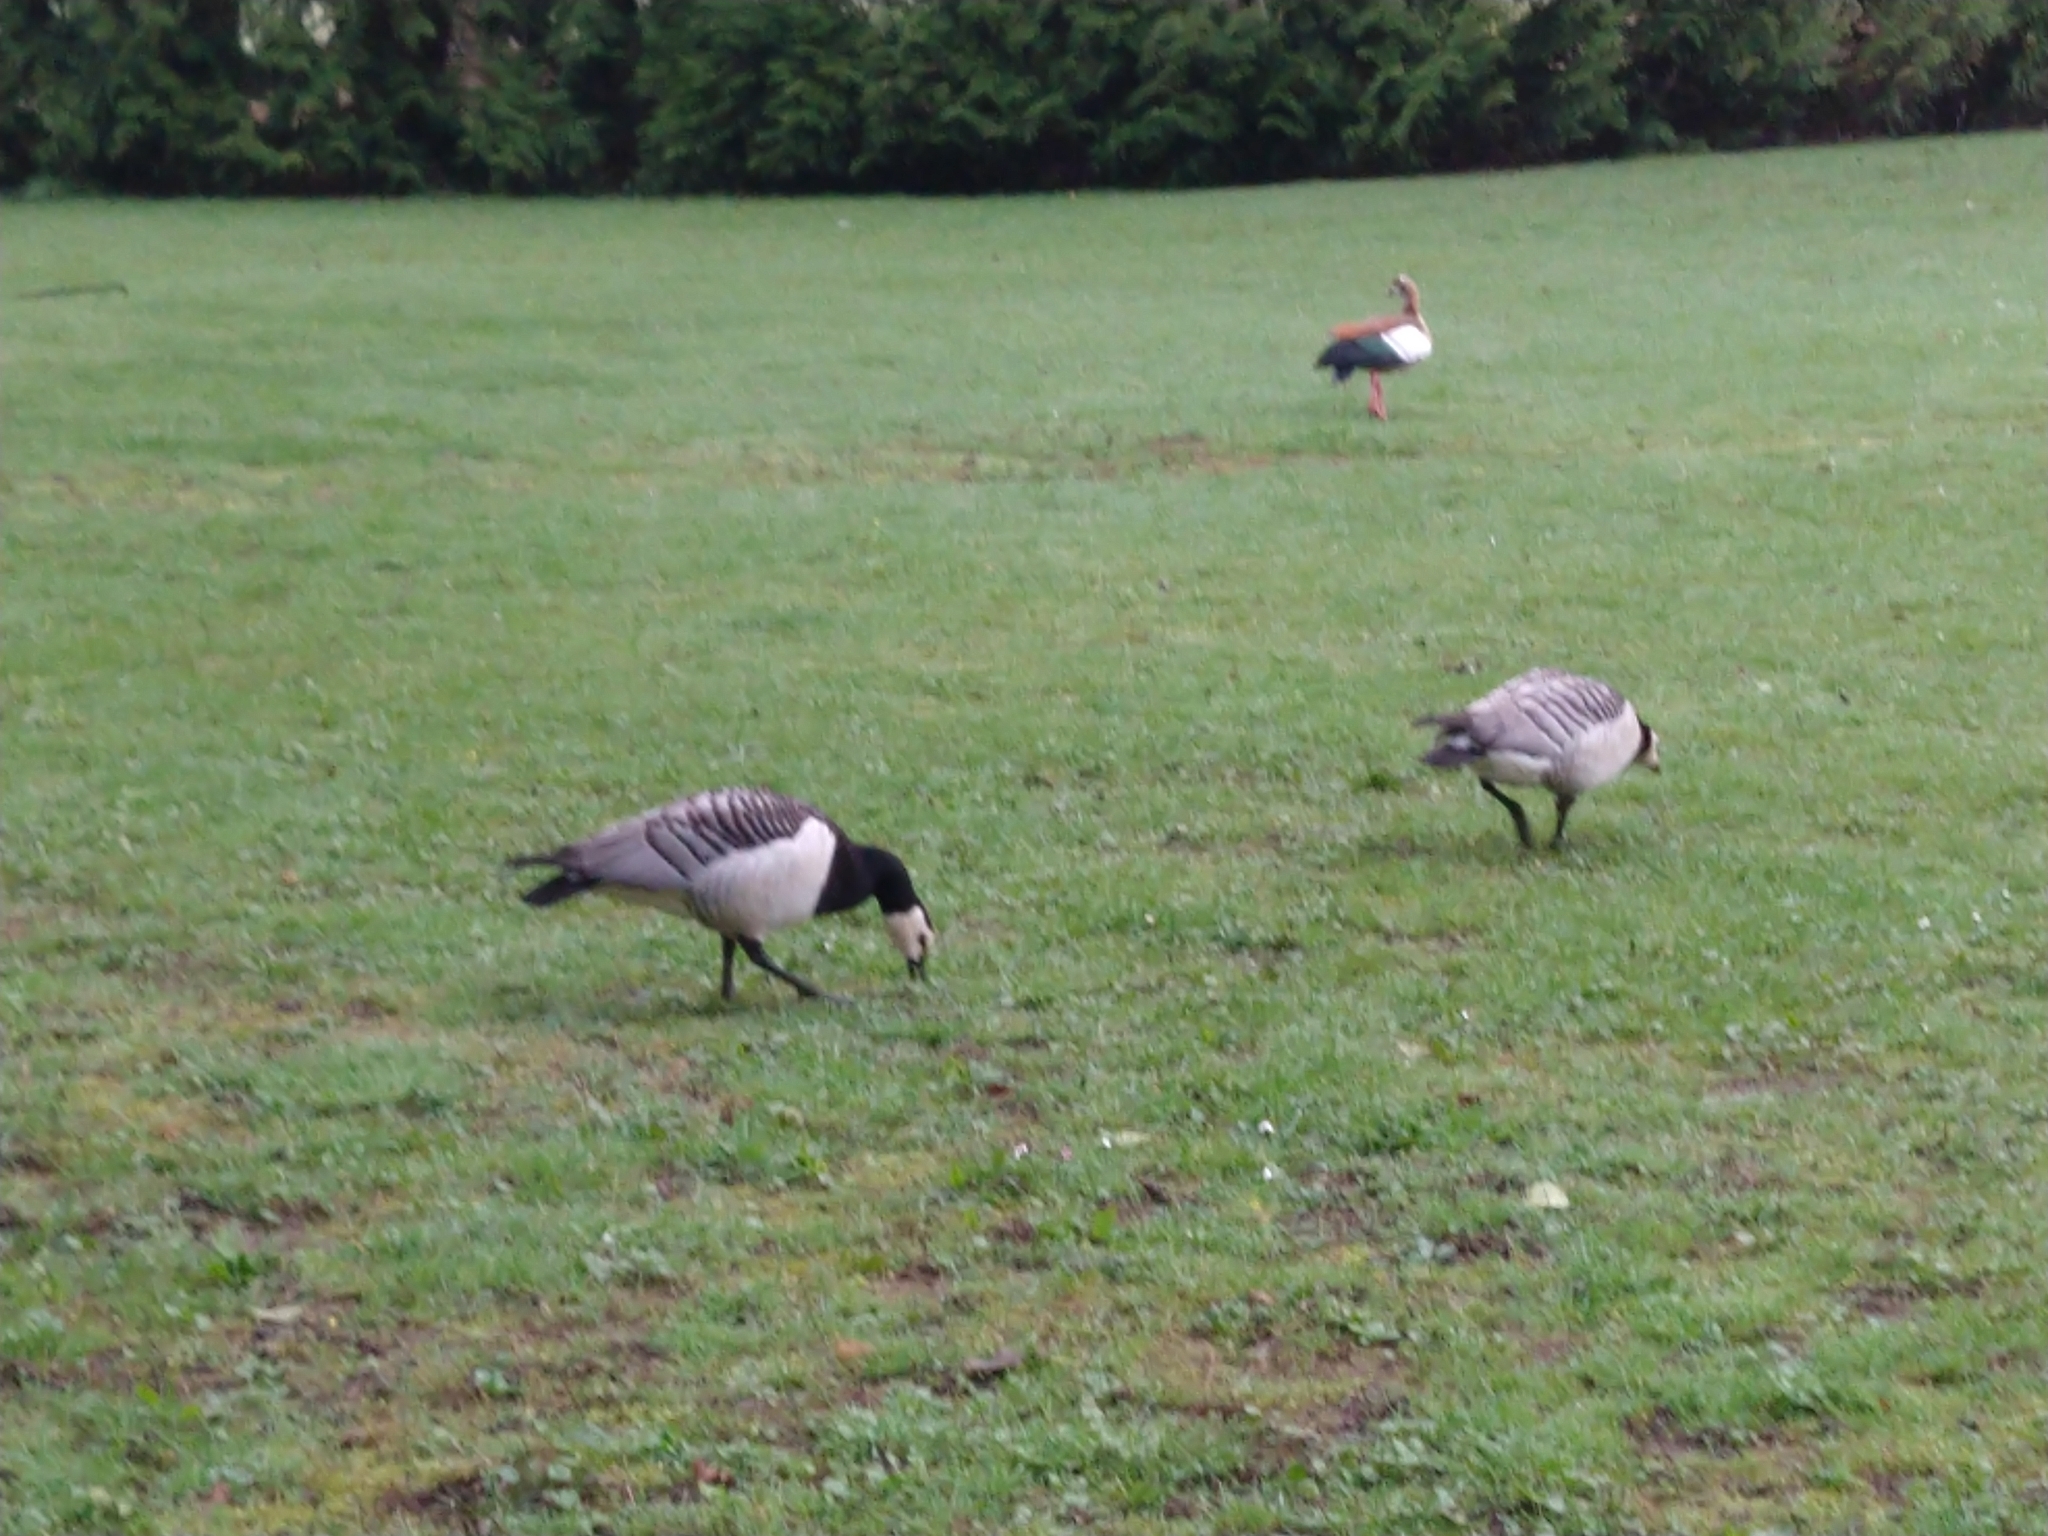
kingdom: Animalia
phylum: Chordata
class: Aves
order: Anseriformes
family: Anatidae
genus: Branta
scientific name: Branta leucopsis
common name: Barnacle goose
